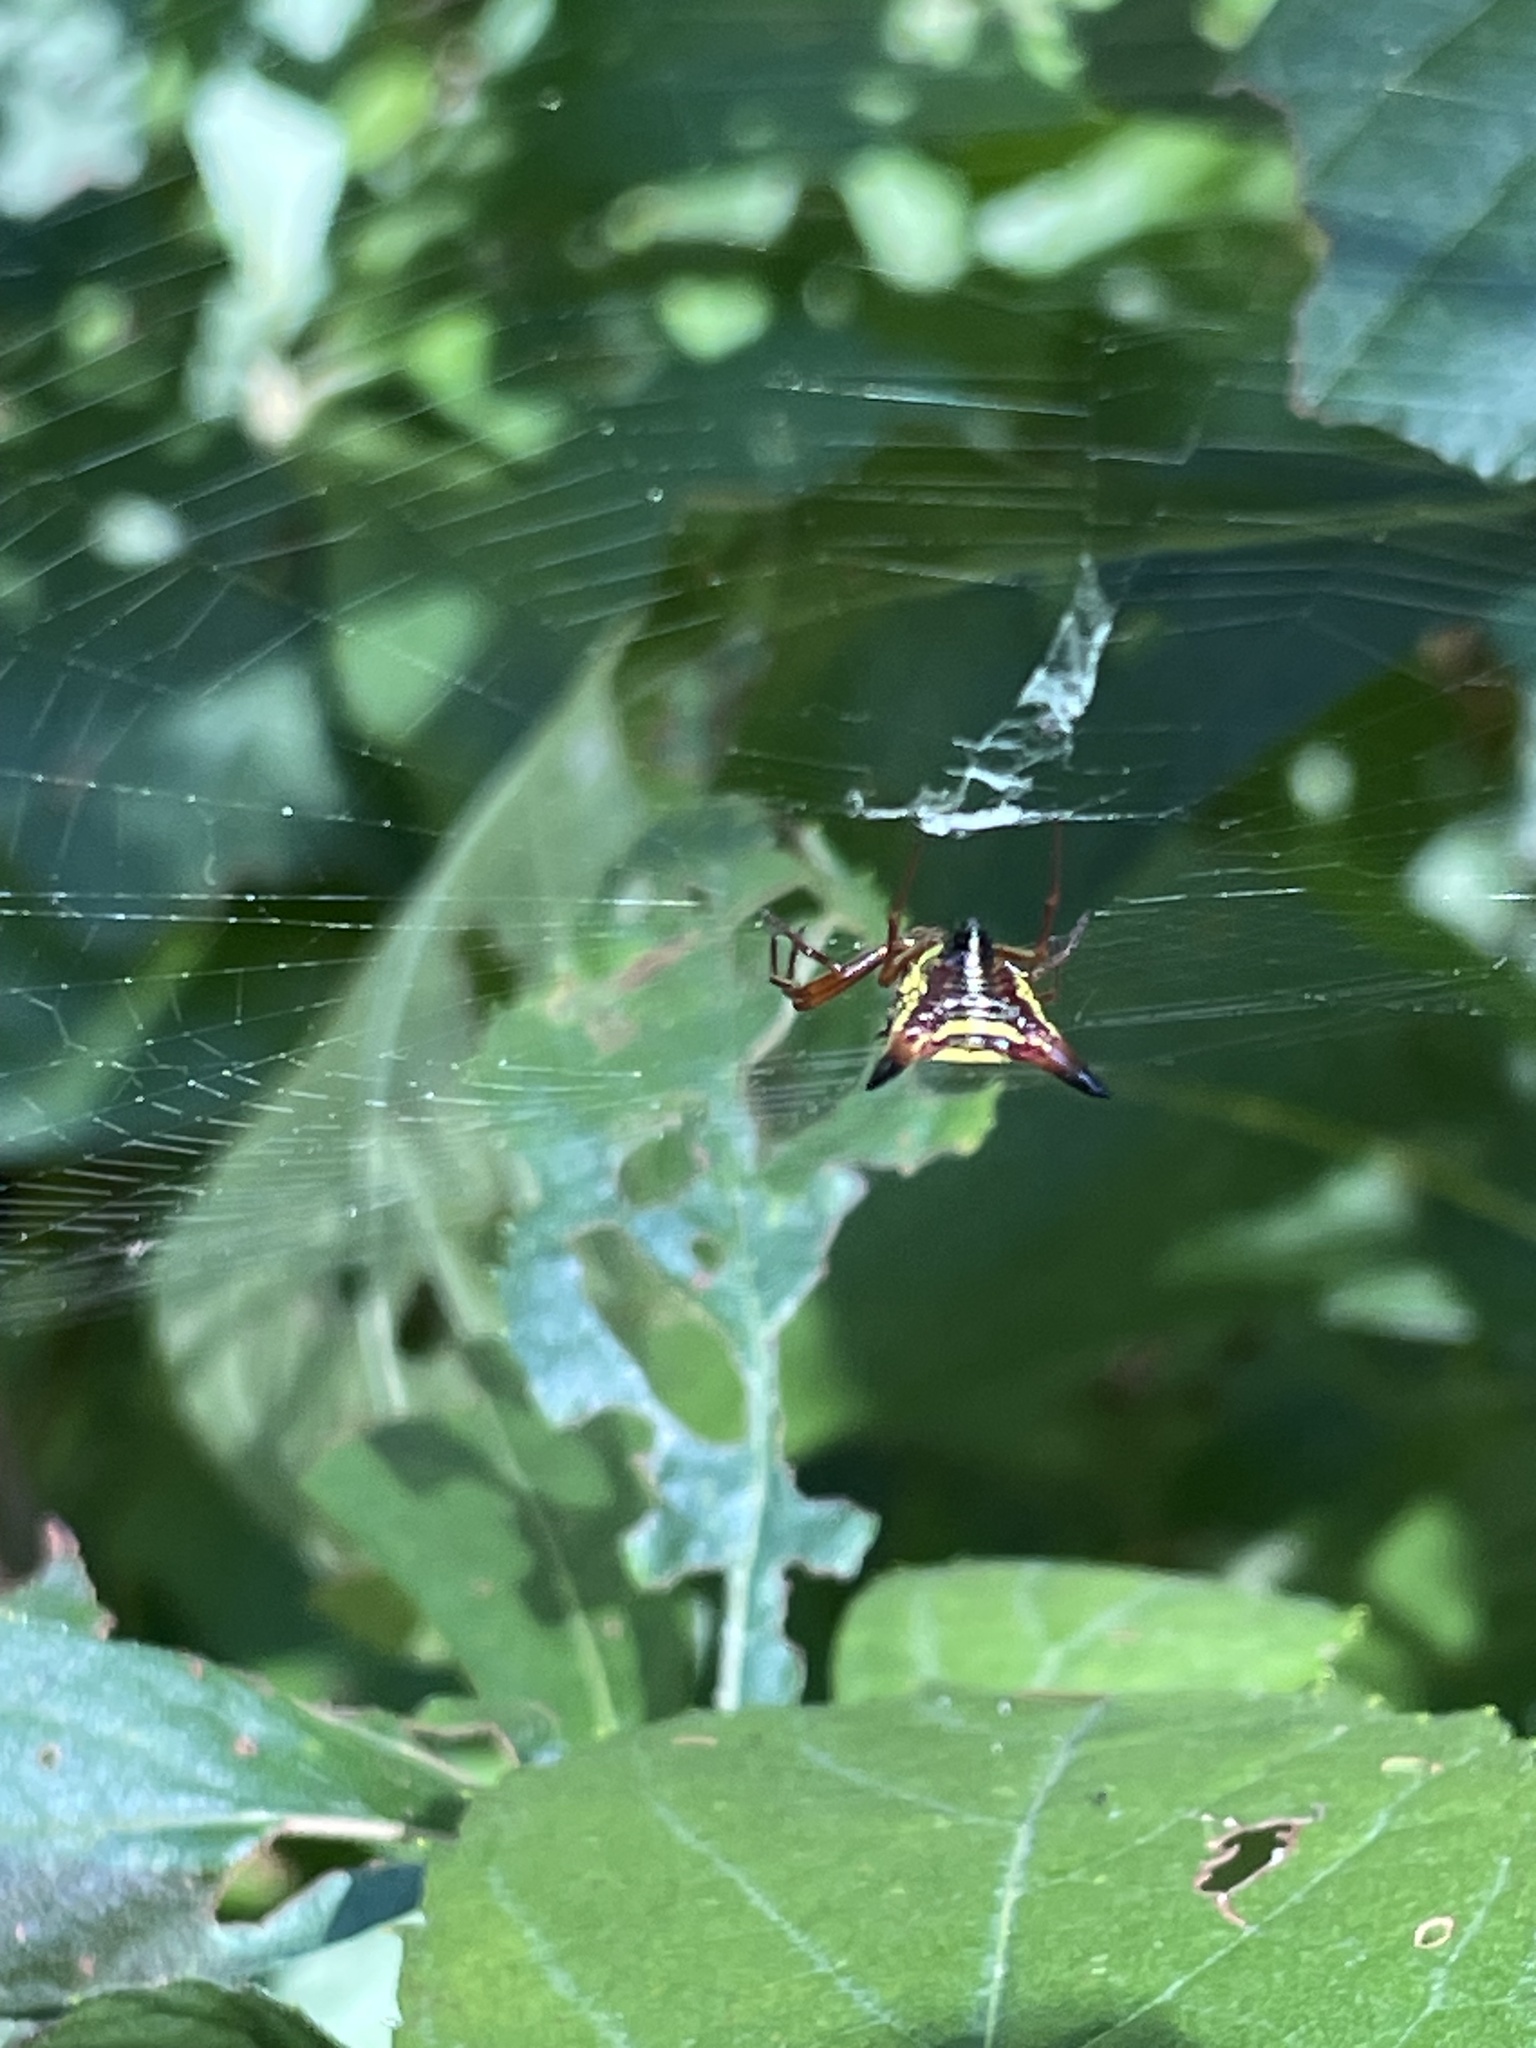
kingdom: Animalia
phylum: Arthropoda
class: Arachnida
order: Araneae
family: Araneidae
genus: Micrathena
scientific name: Micrathena sagittata
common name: Orb weavers
